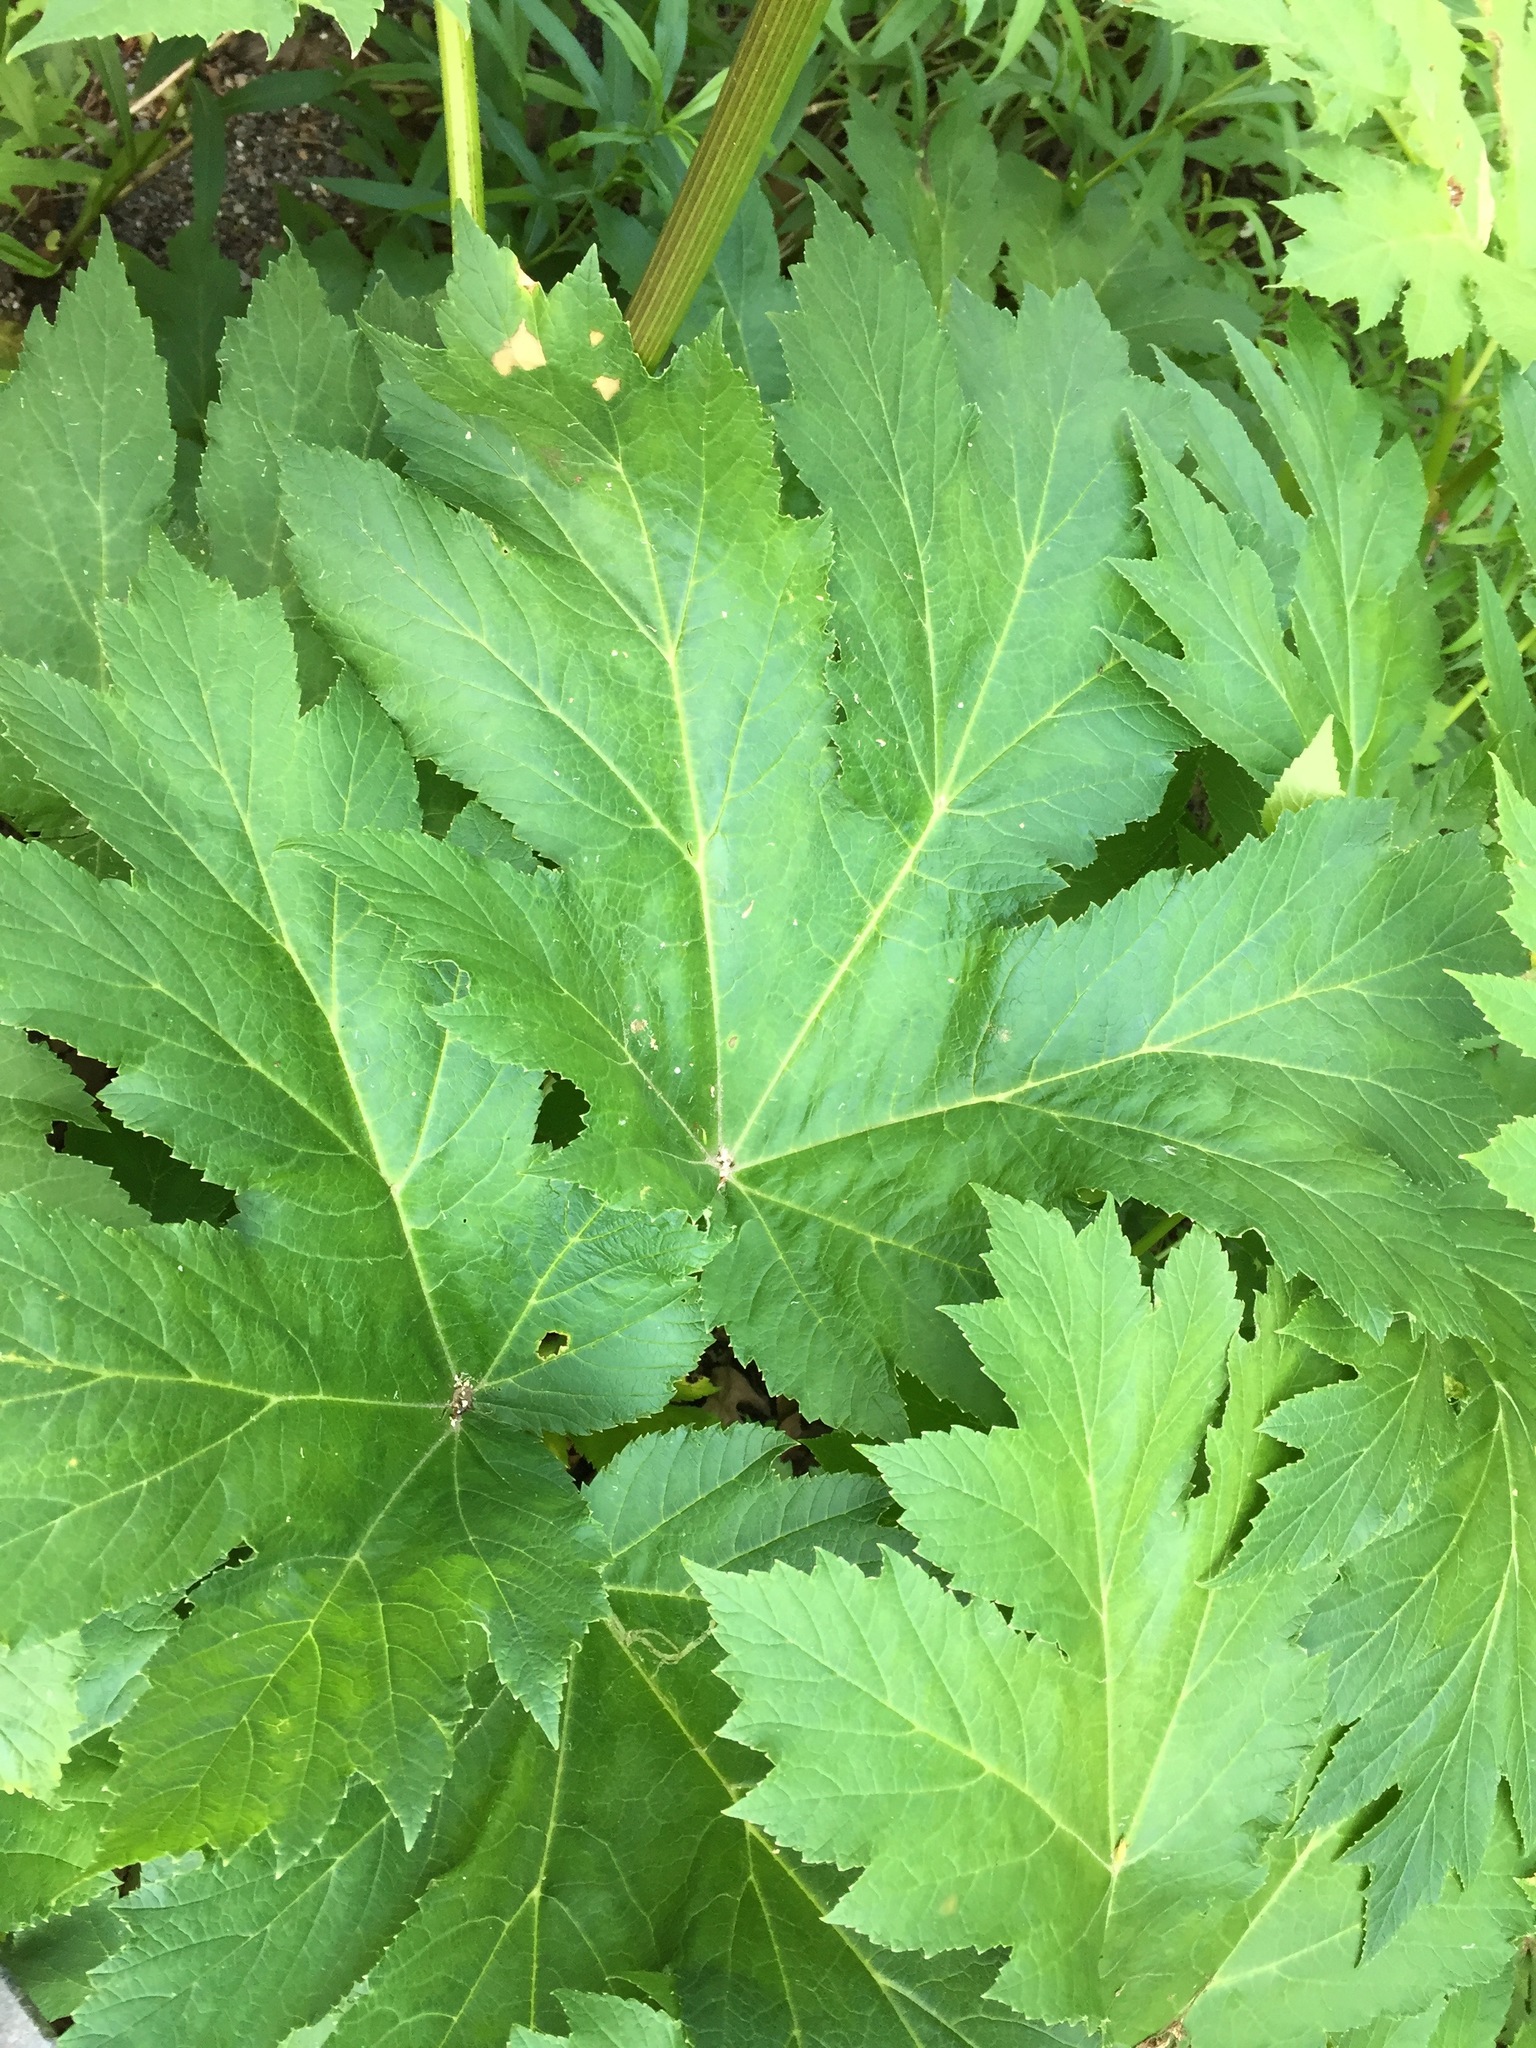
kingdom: Plantae
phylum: Tracheophyta
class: Magnoliopsida
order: Apiales
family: Apiaceae
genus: Heracleum
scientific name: Heracleum maximum
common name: American cow parsnip
